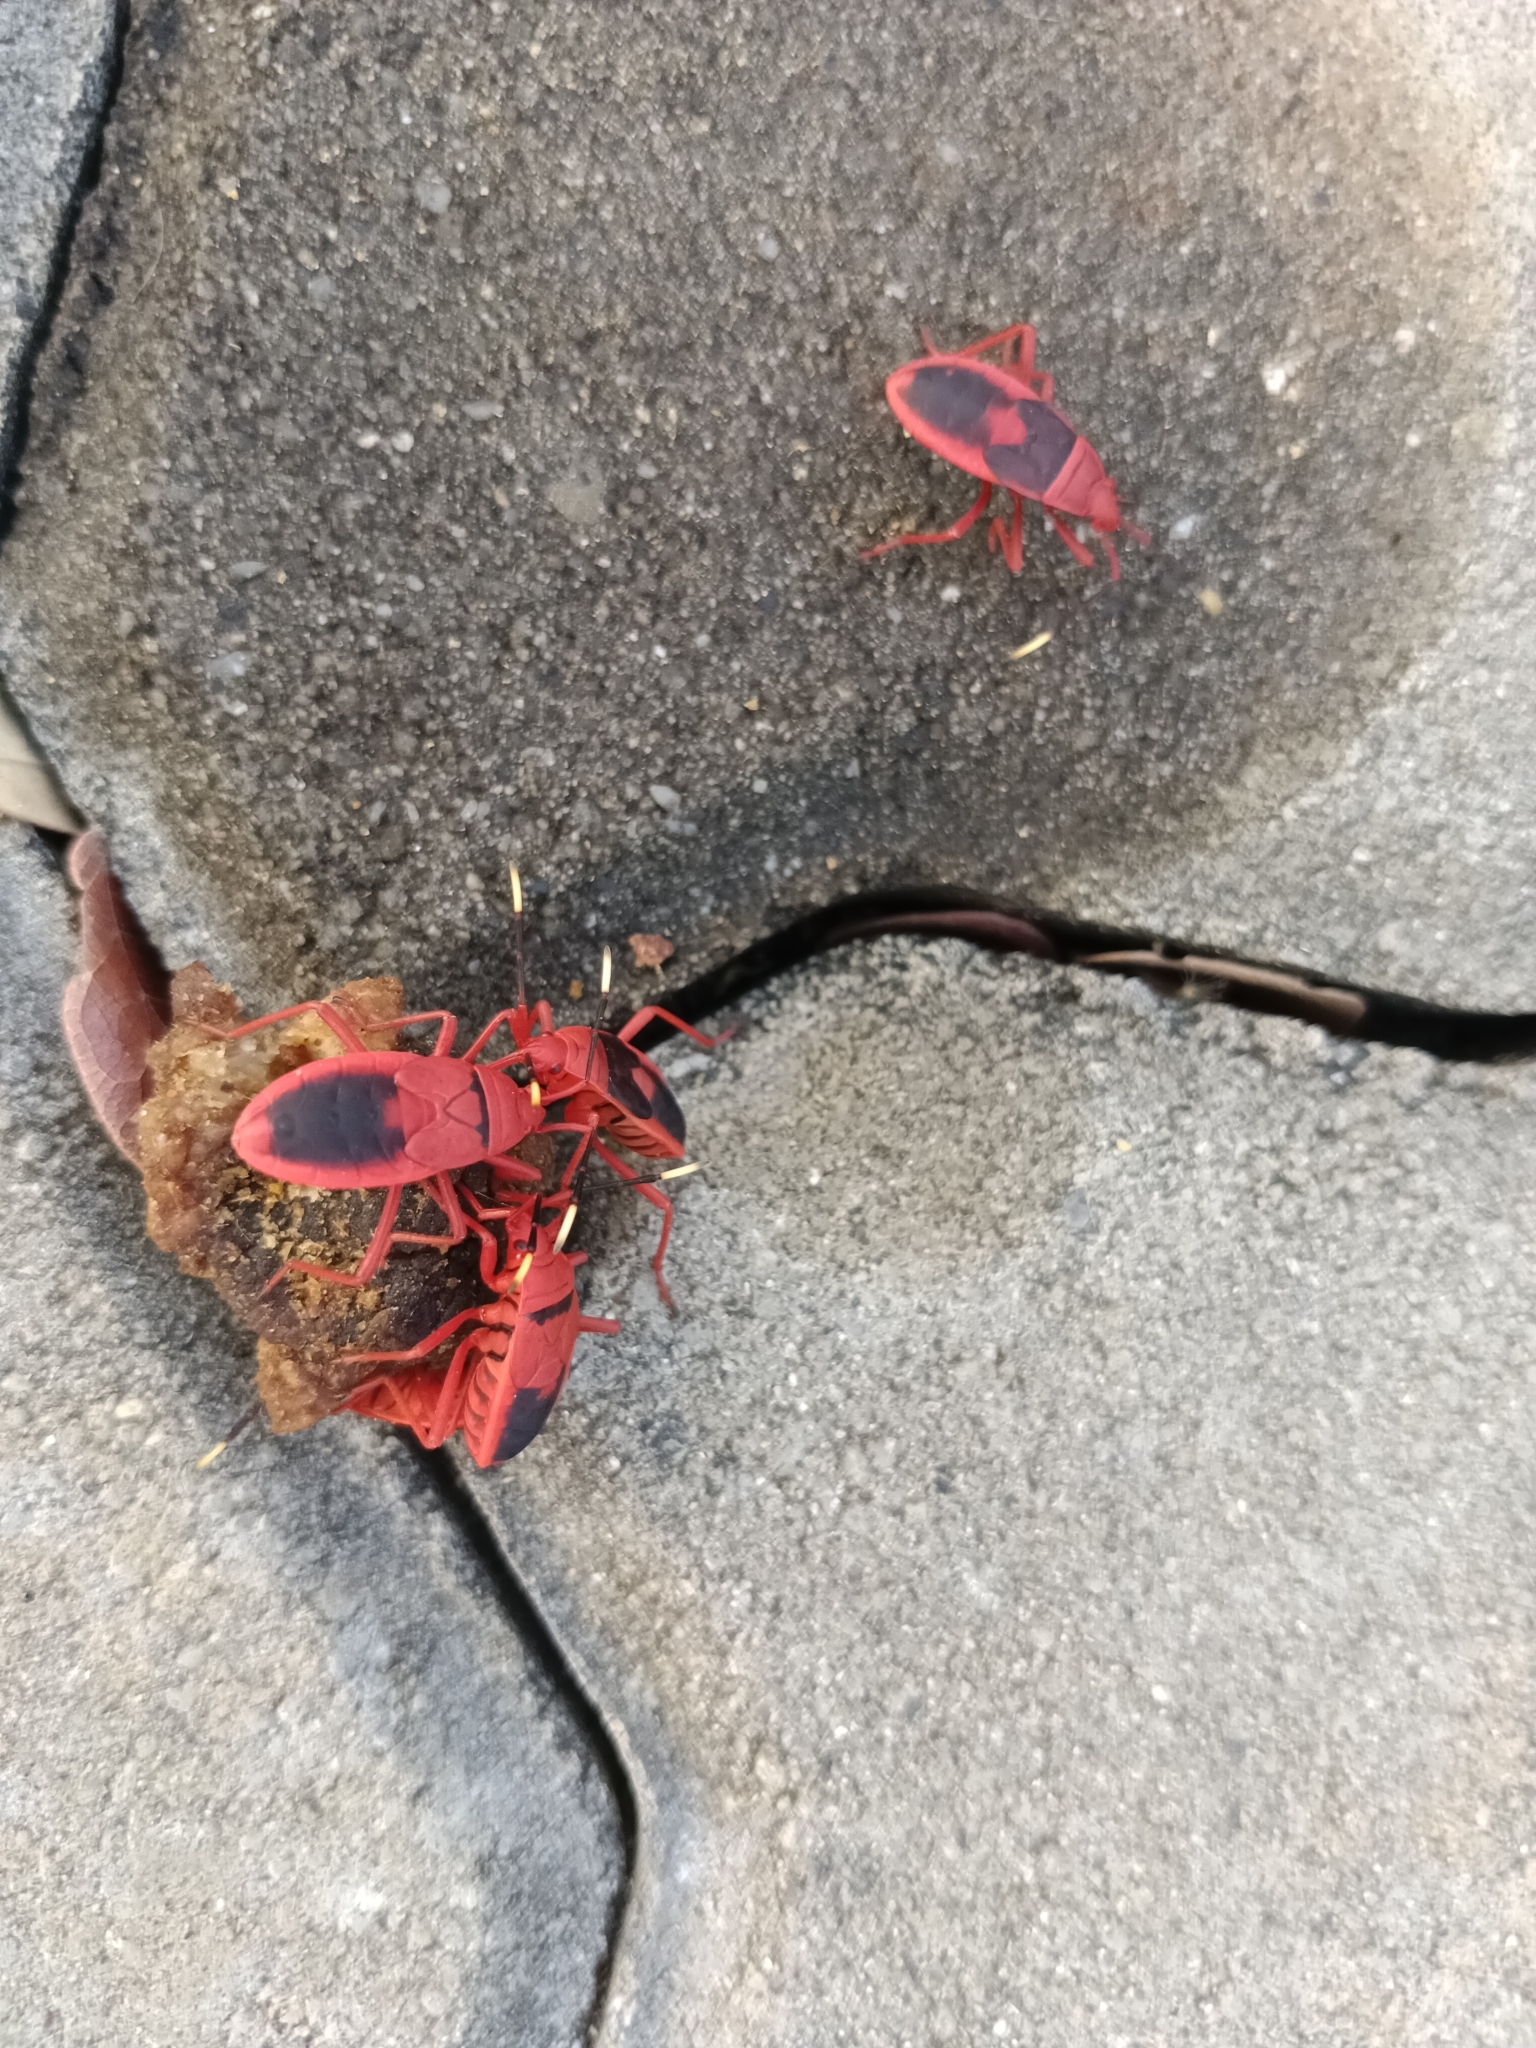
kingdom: Animalia
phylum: Arthropoda
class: Insecta
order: Hemiptera
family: Pyrrhocoridae
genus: Probergrothius
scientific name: Probergrothius
